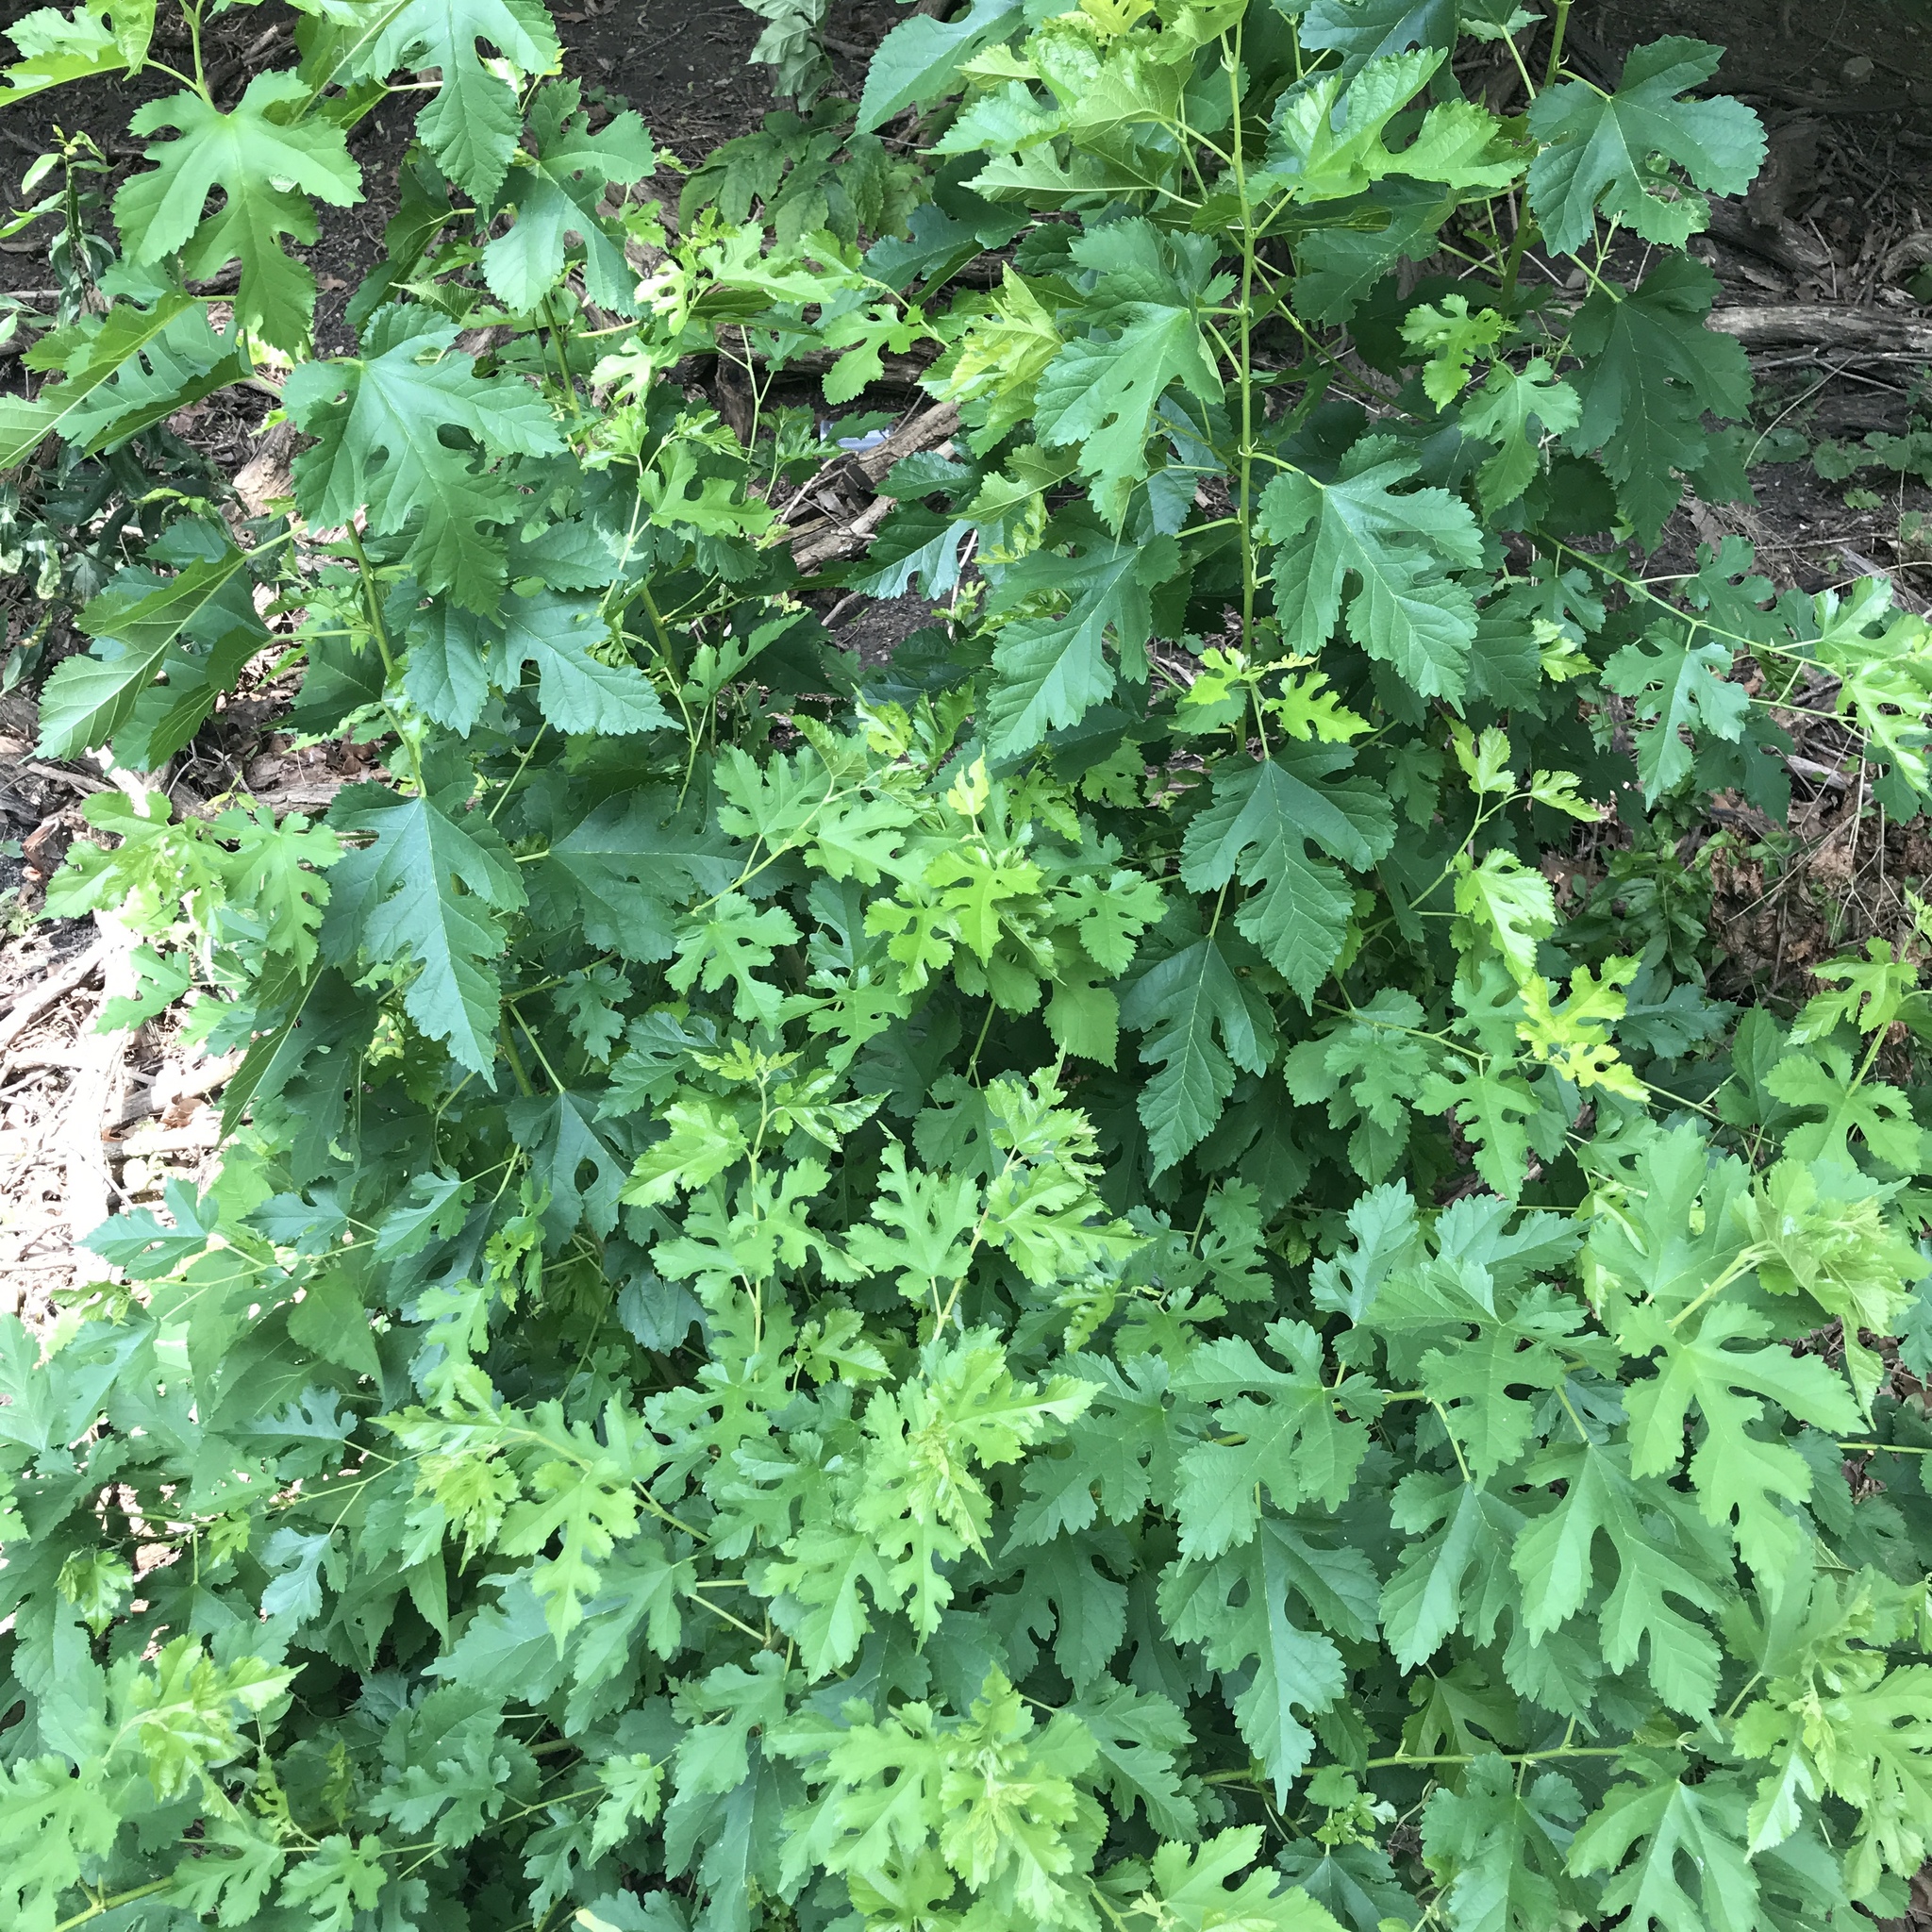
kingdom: Plantae
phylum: Tracheophyta
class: Magnoliopsida
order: Rosales
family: Moraceae
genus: Morus
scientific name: Morus alba
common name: White mulberry
